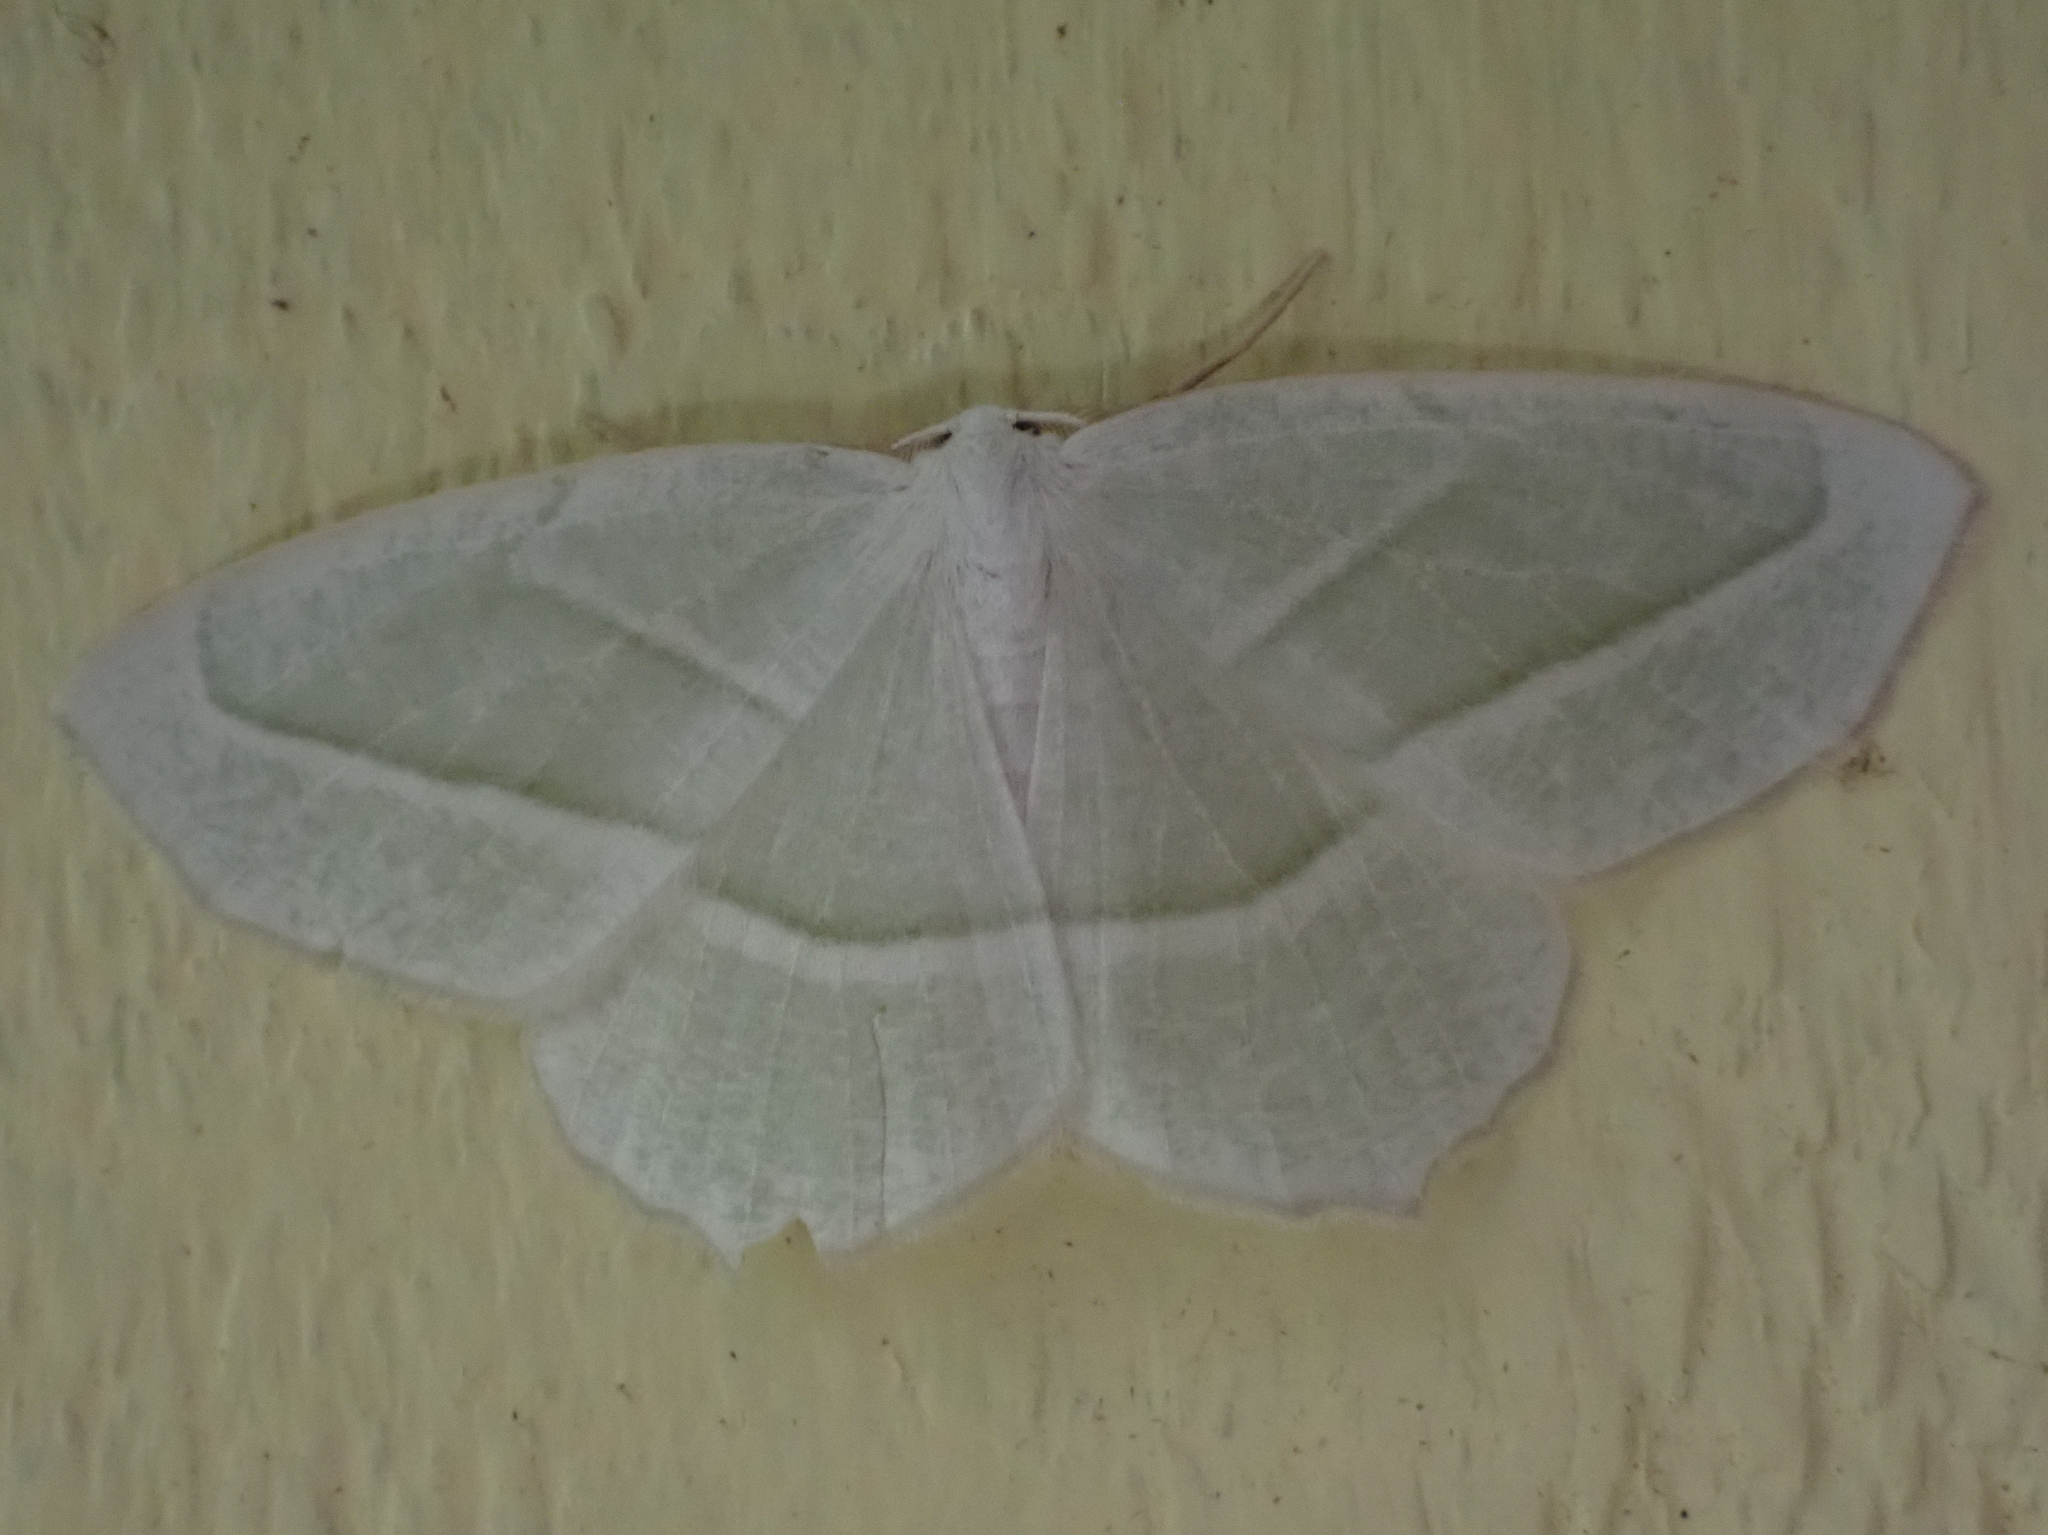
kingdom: Animalia
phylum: Arthropoda
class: Insecta
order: Lepidoptera
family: Geometridae
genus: Campaea
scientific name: Campaea perlata
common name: Fringed looper
